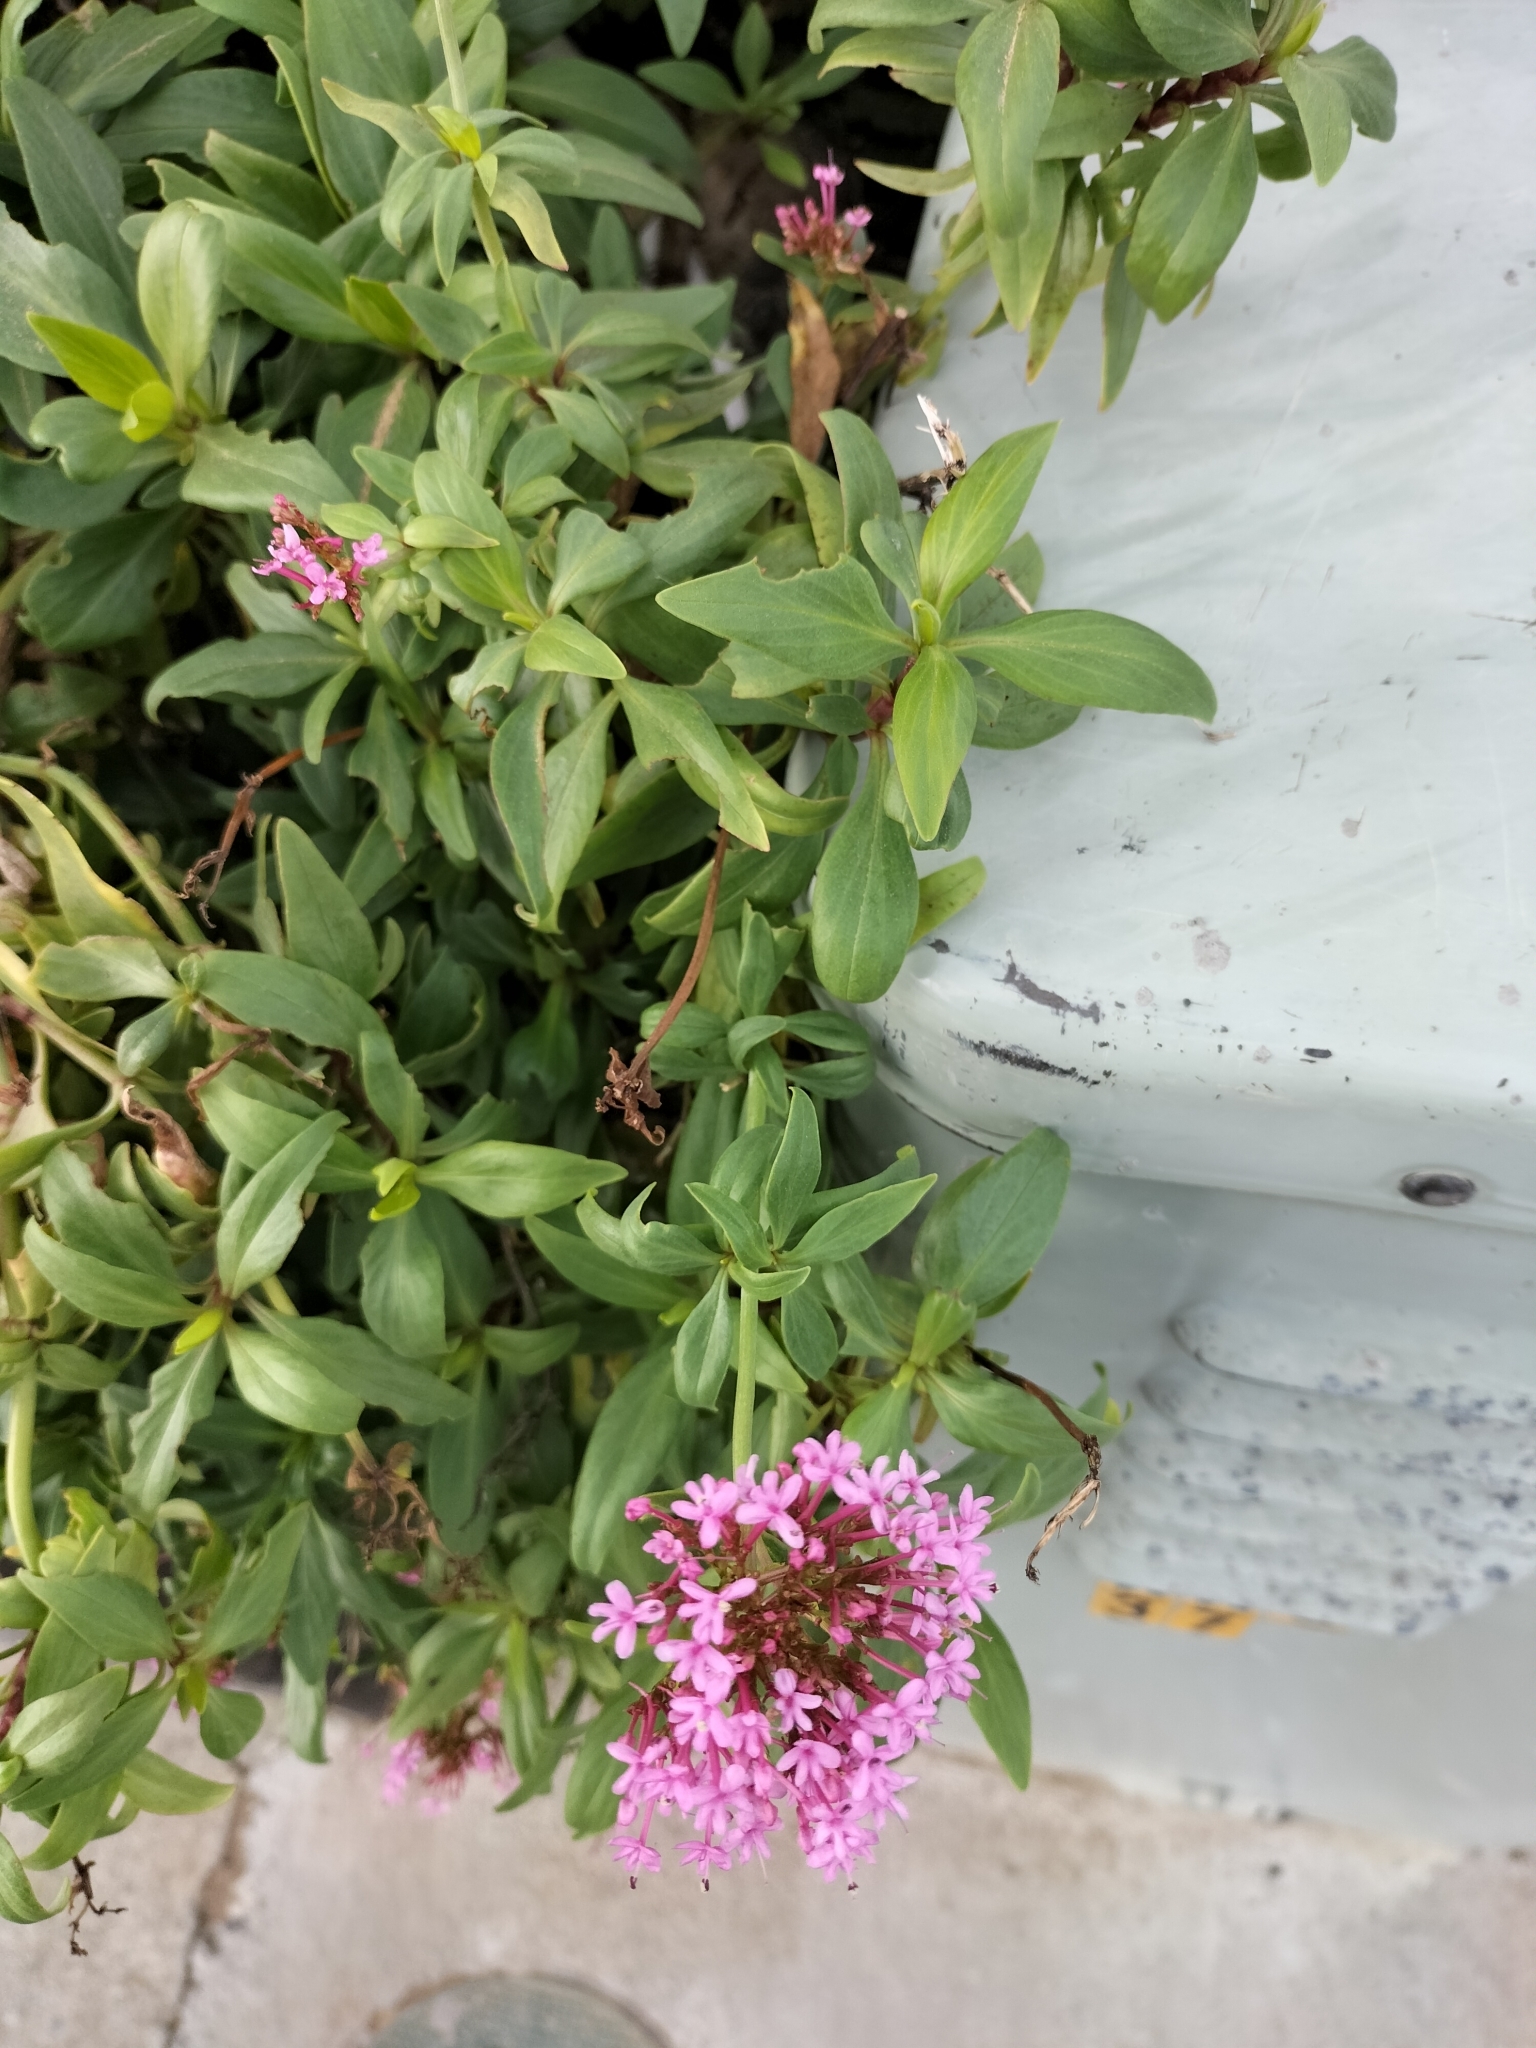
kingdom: Plantae
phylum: Tracheophyta
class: Magnoliopsida
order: Dipsacales
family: Caprifoliaceae
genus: Centranthus
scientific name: Centranthus ruber
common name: Red valerian
